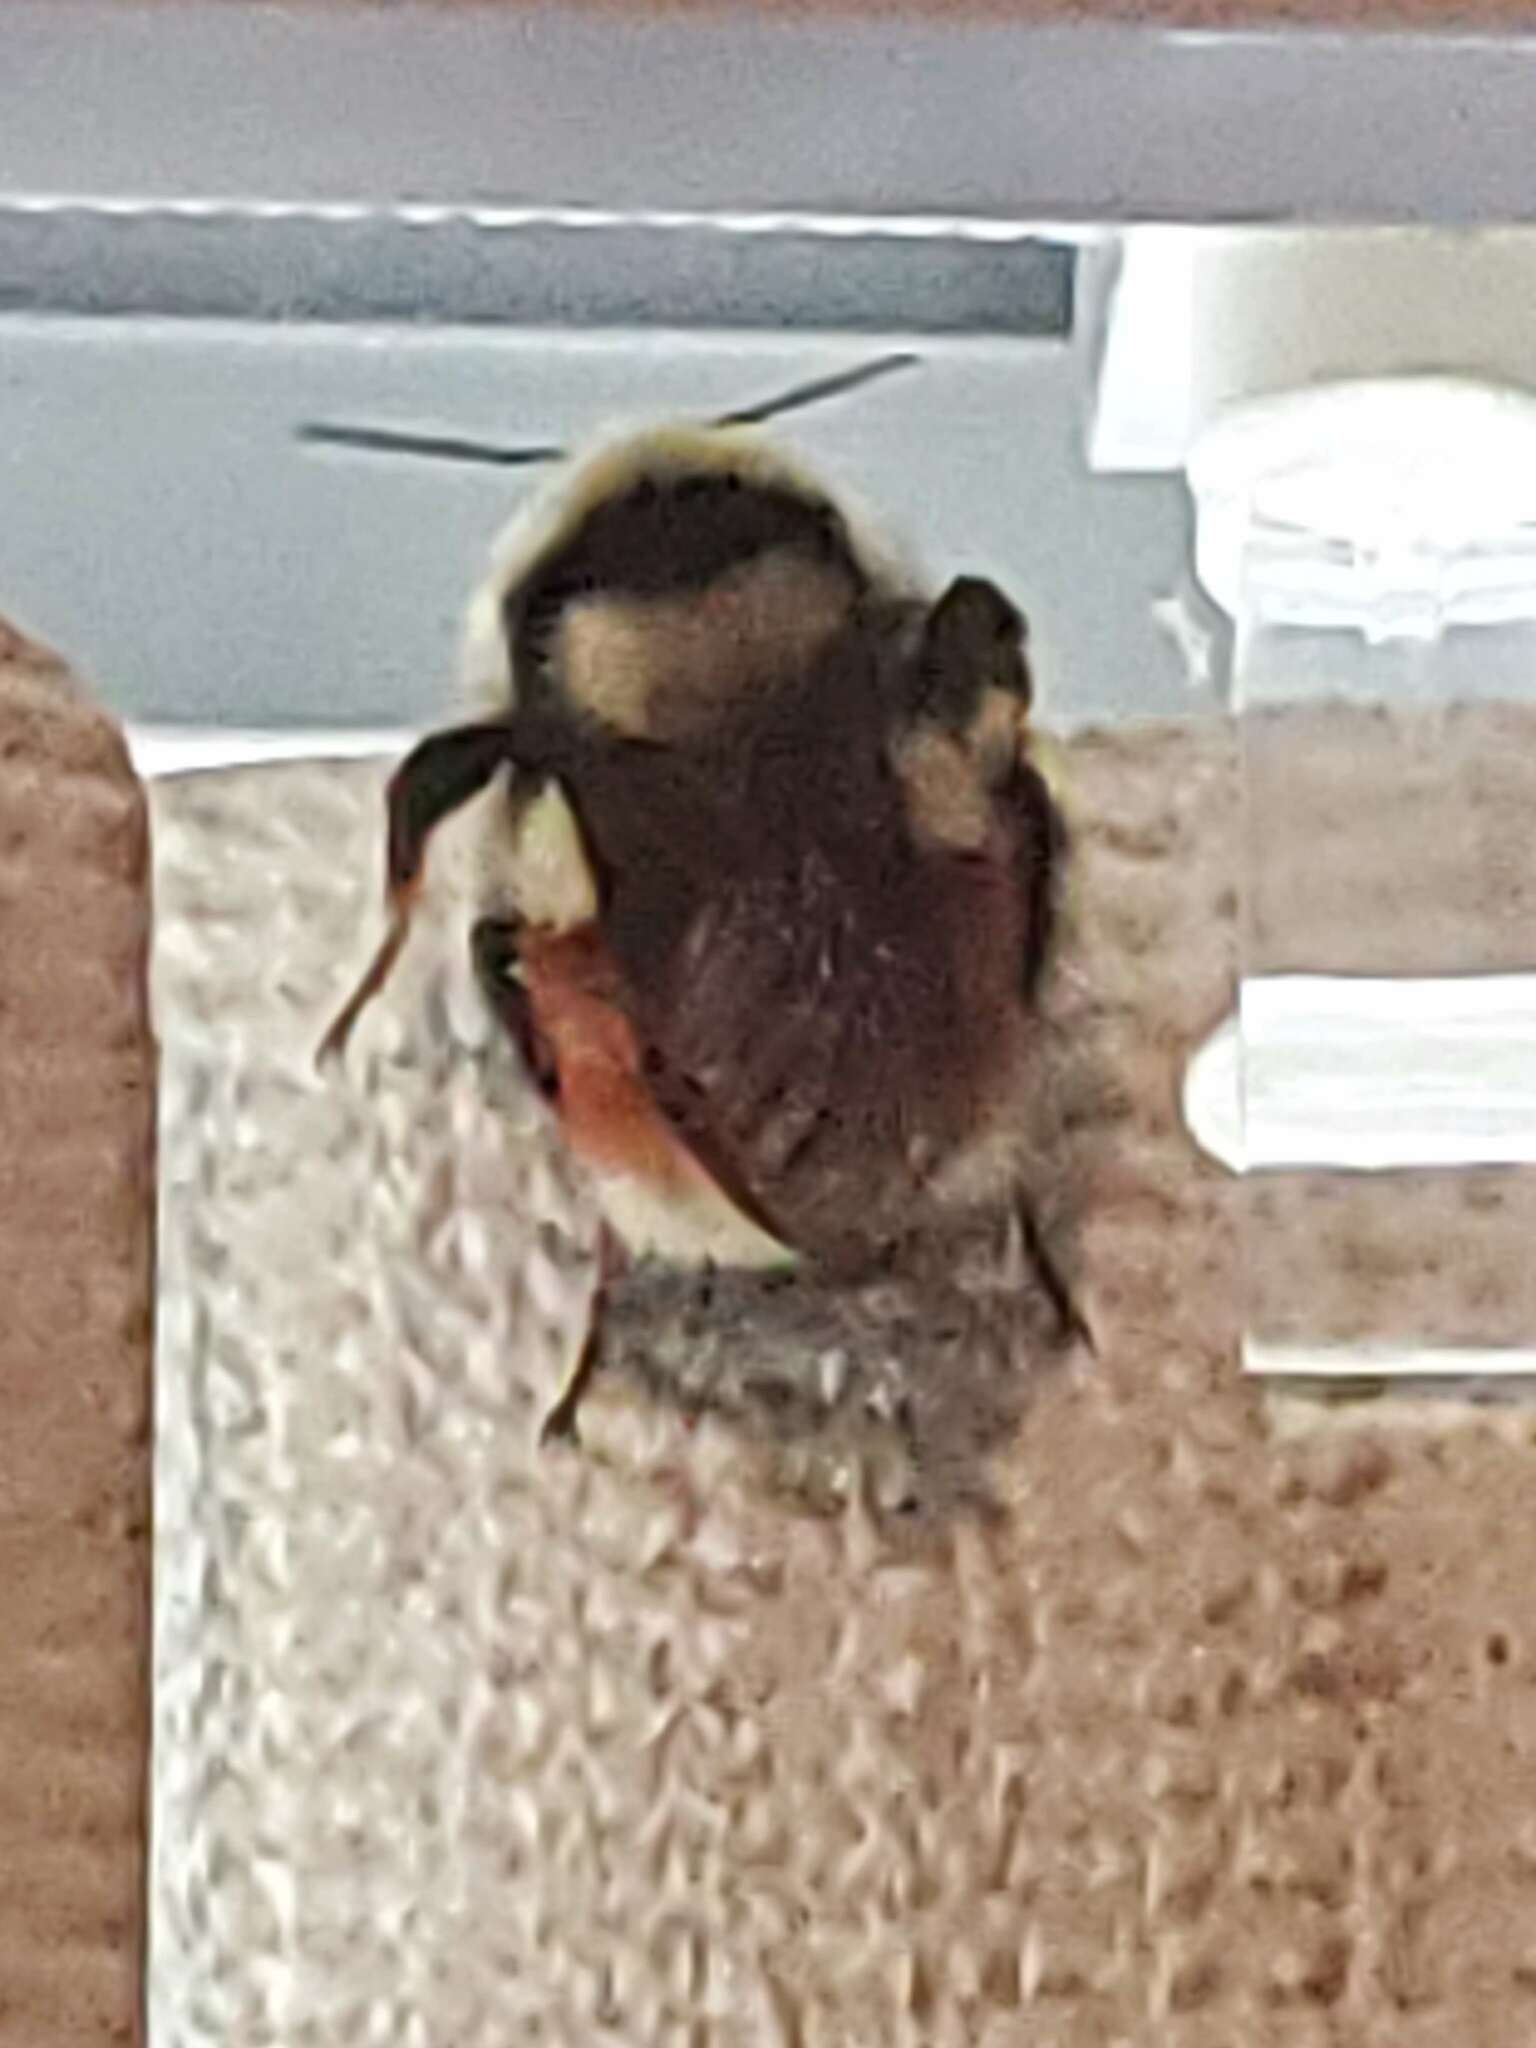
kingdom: Animalia
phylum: Arthropoda
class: Insecta
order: Hymenoptera
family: Apidae
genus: Bombus
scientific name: Bombus huntii
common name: Hunt bumble bee
